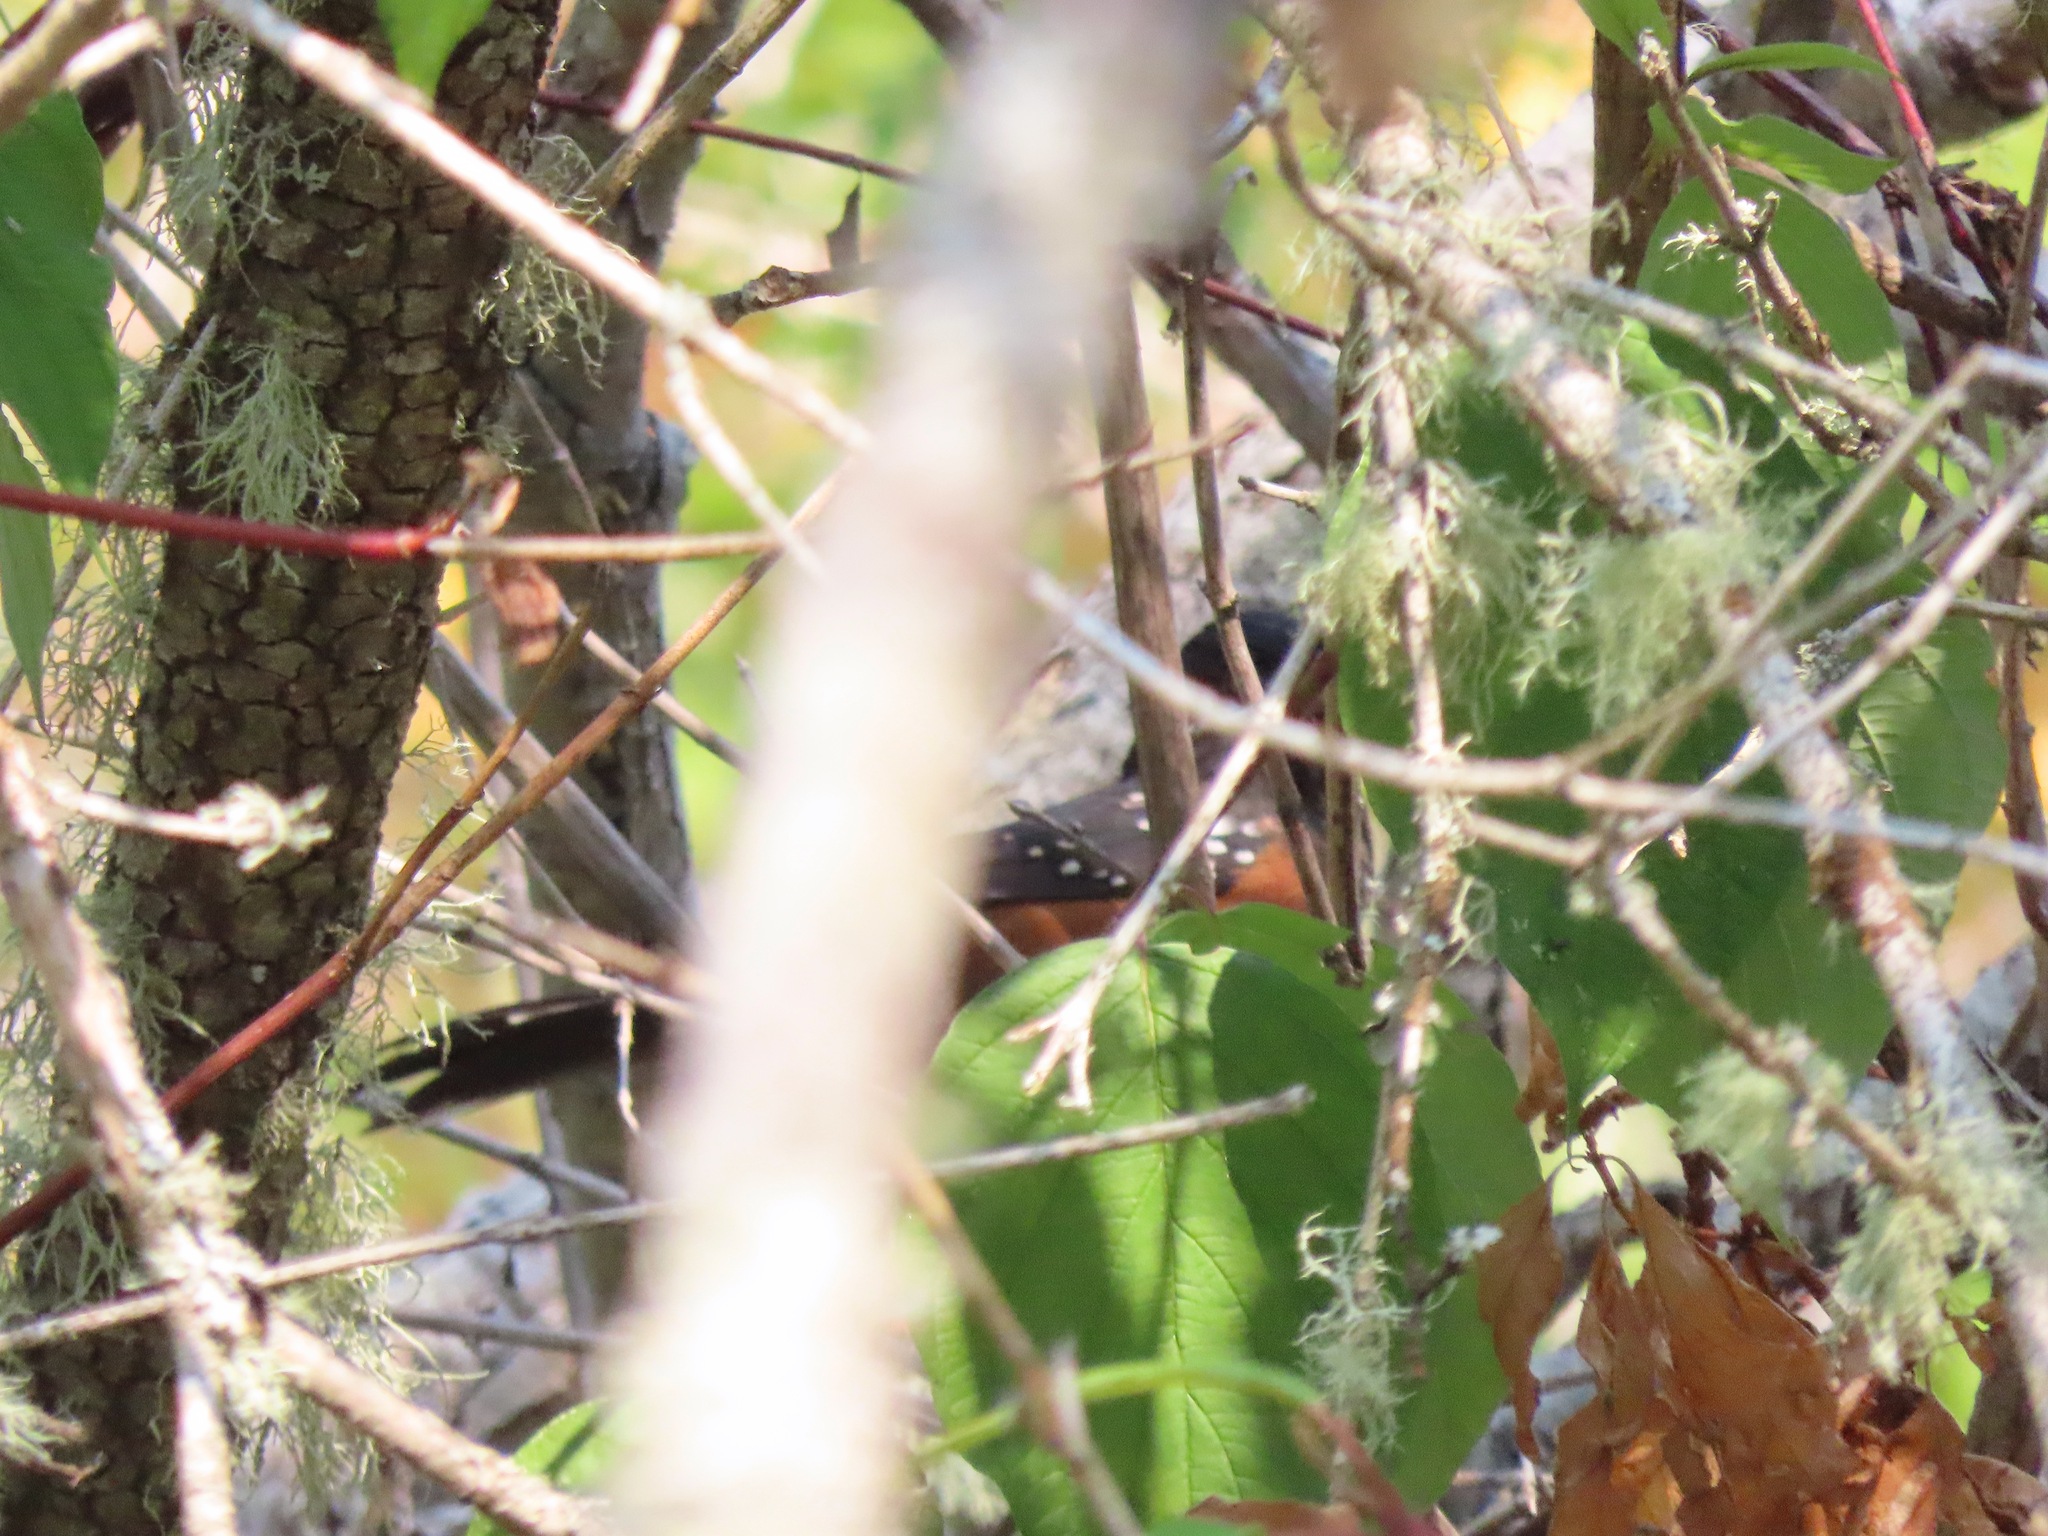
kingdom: Animalia
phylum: Chordata
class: Aves
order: Passeriformes
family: Passerellidae
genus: Pipilo
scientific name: Pipilo maculatus
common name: Spotted towhee
